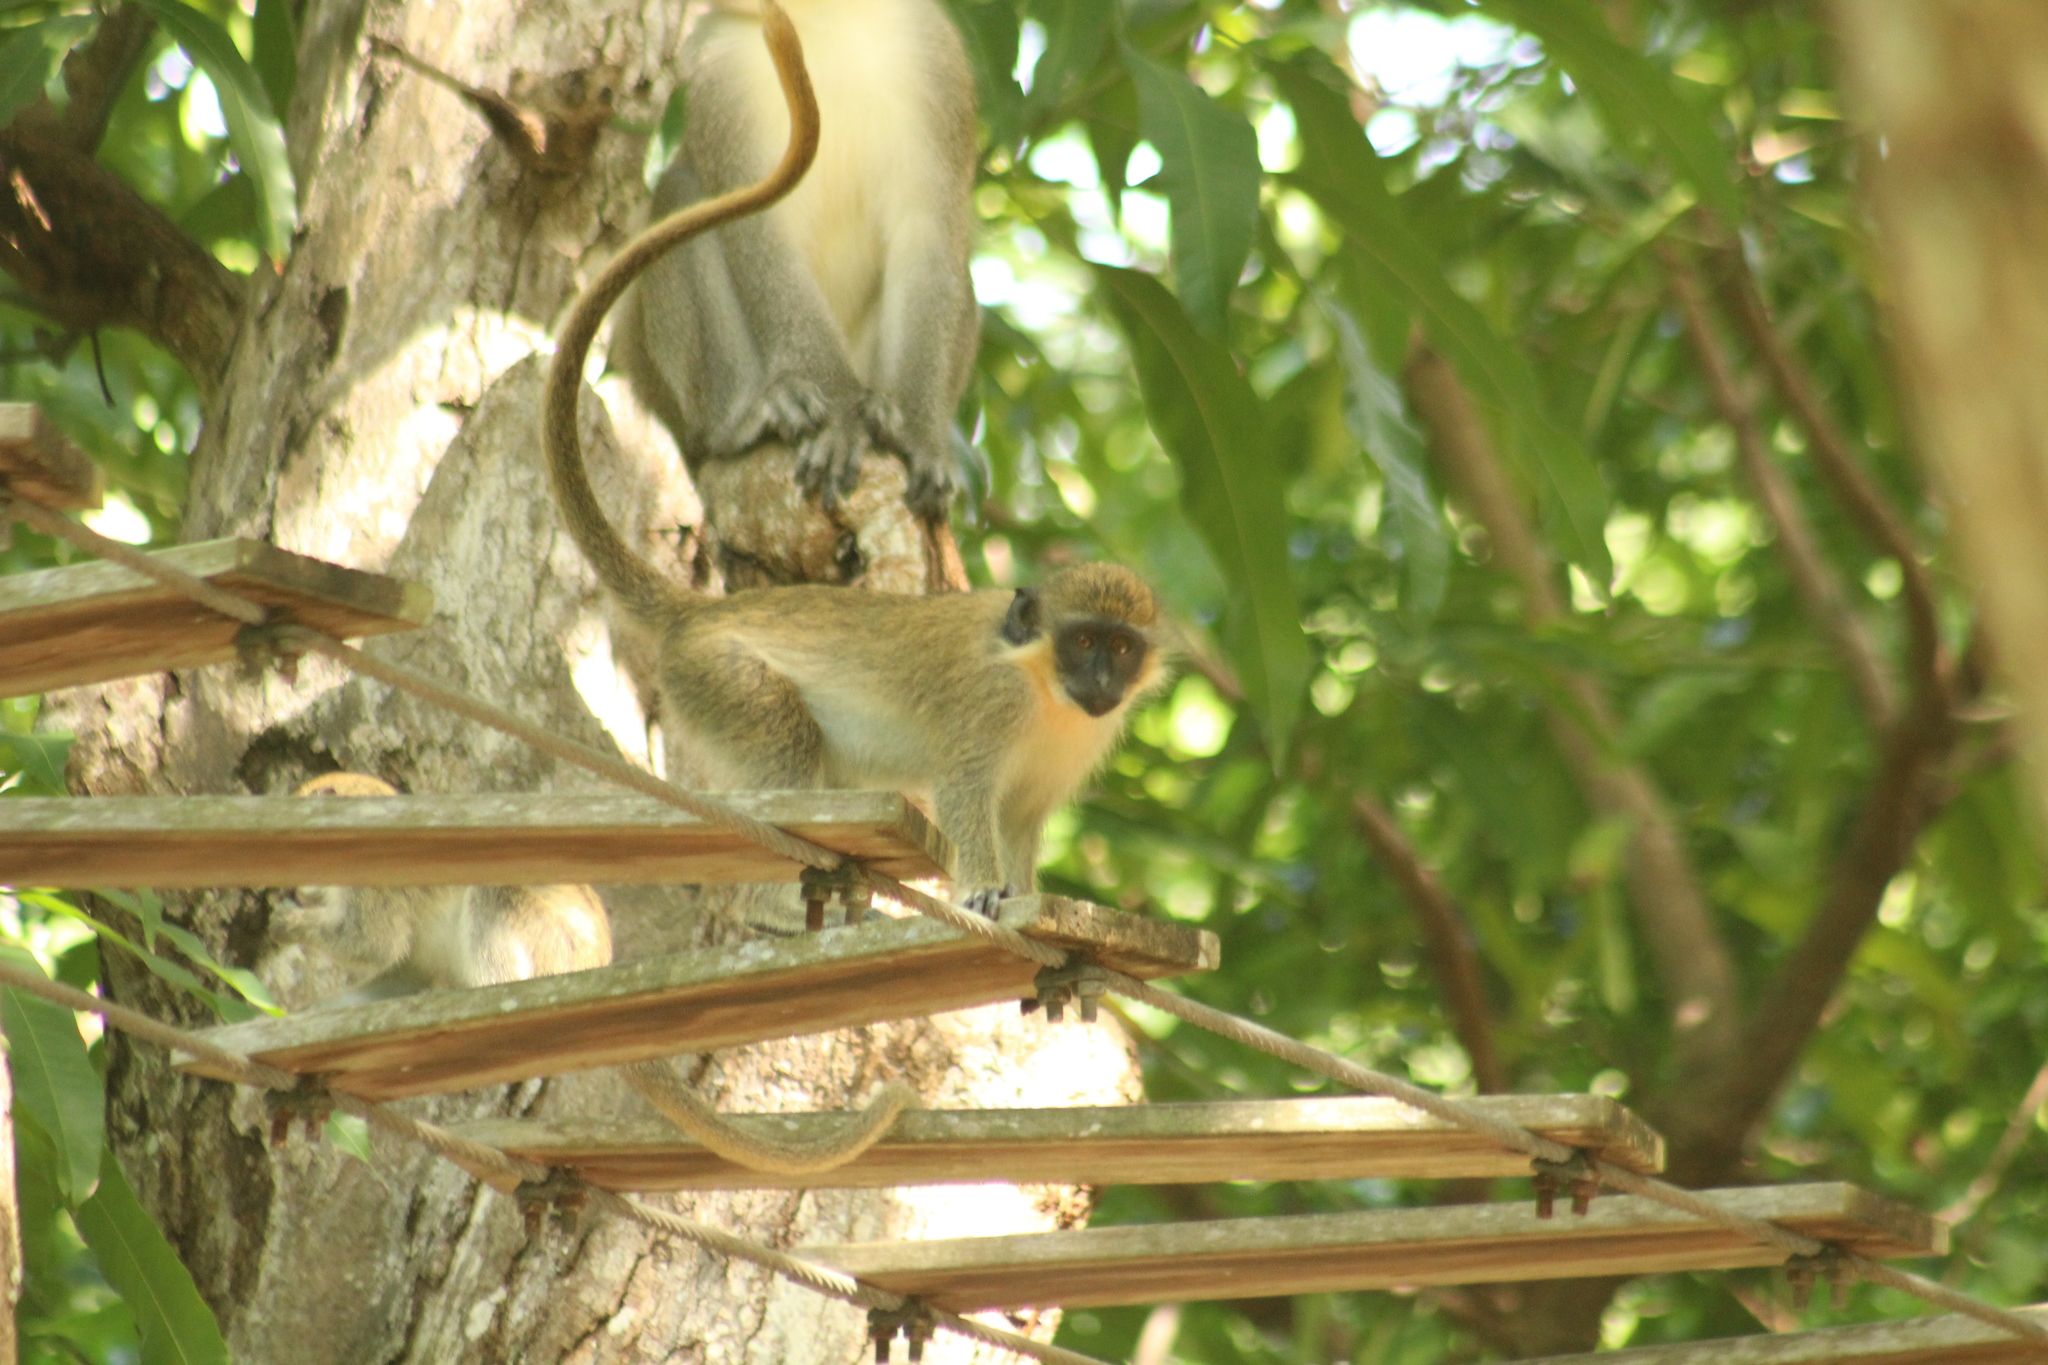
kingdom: Animalia
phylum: Chordata
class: Mammalia
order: Primates
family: Cercopithecidae
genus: Chlorocebus
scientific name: Chlorocebus sabaeus
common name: Green monkey
